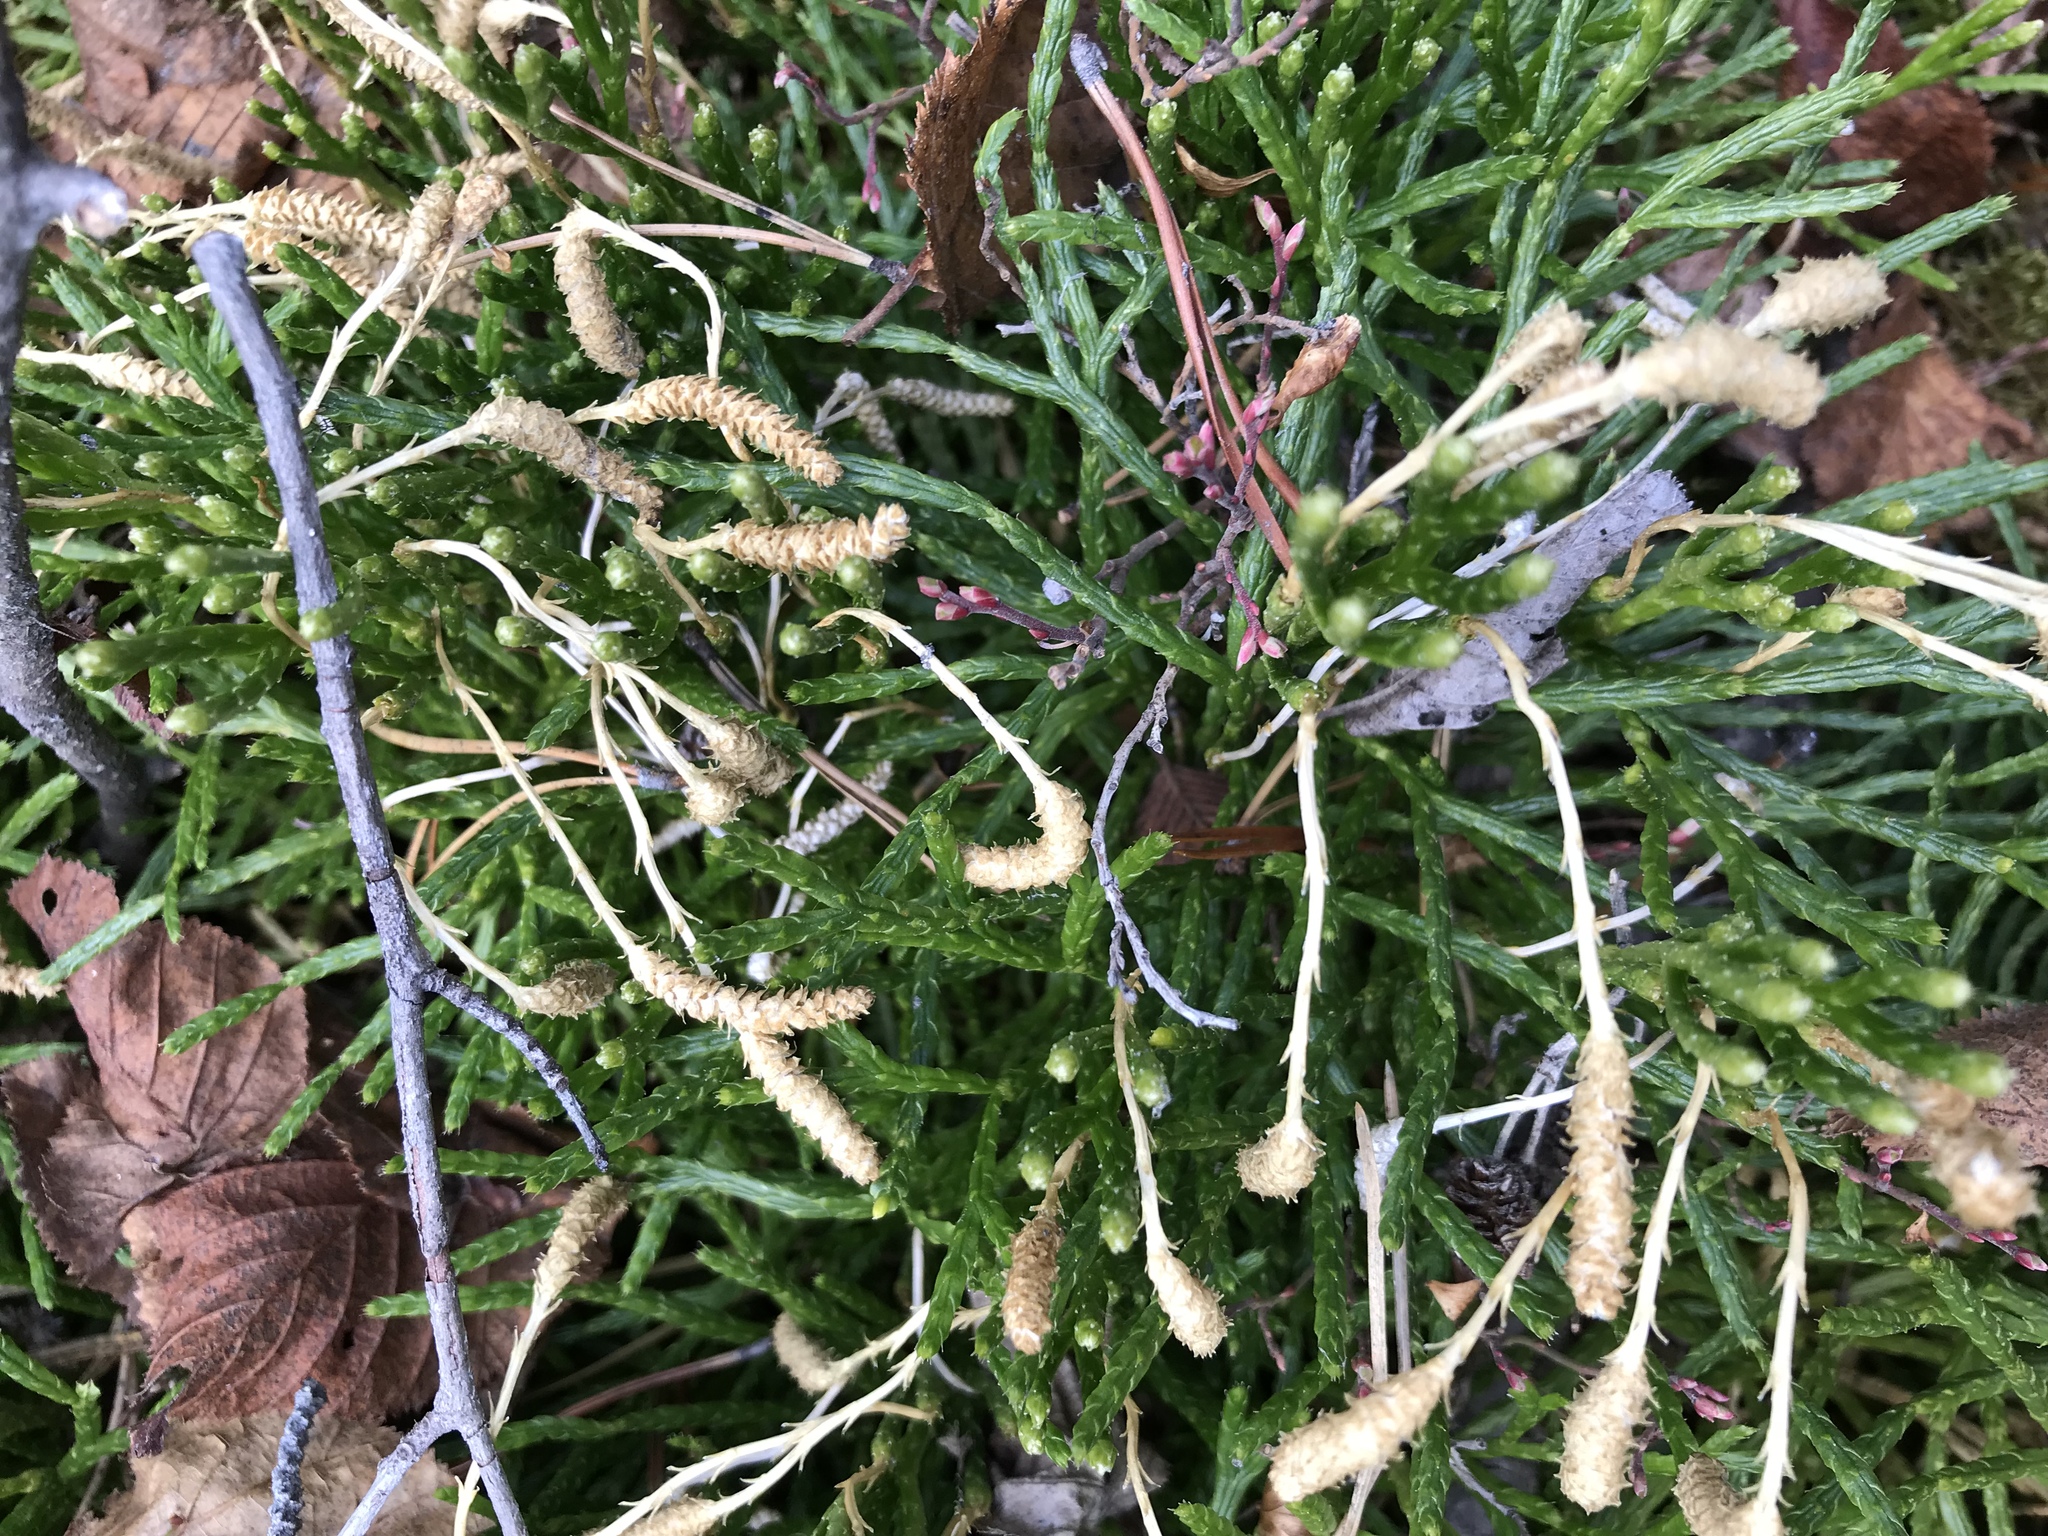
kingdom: Plantae
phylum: Tracheophyta
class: Lycopodiopsida
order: Lycopodiales
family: Lycopodiaceae
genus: Diphasiastrum
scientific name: Diphasiastrum complanatum
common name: Northern running-pine
